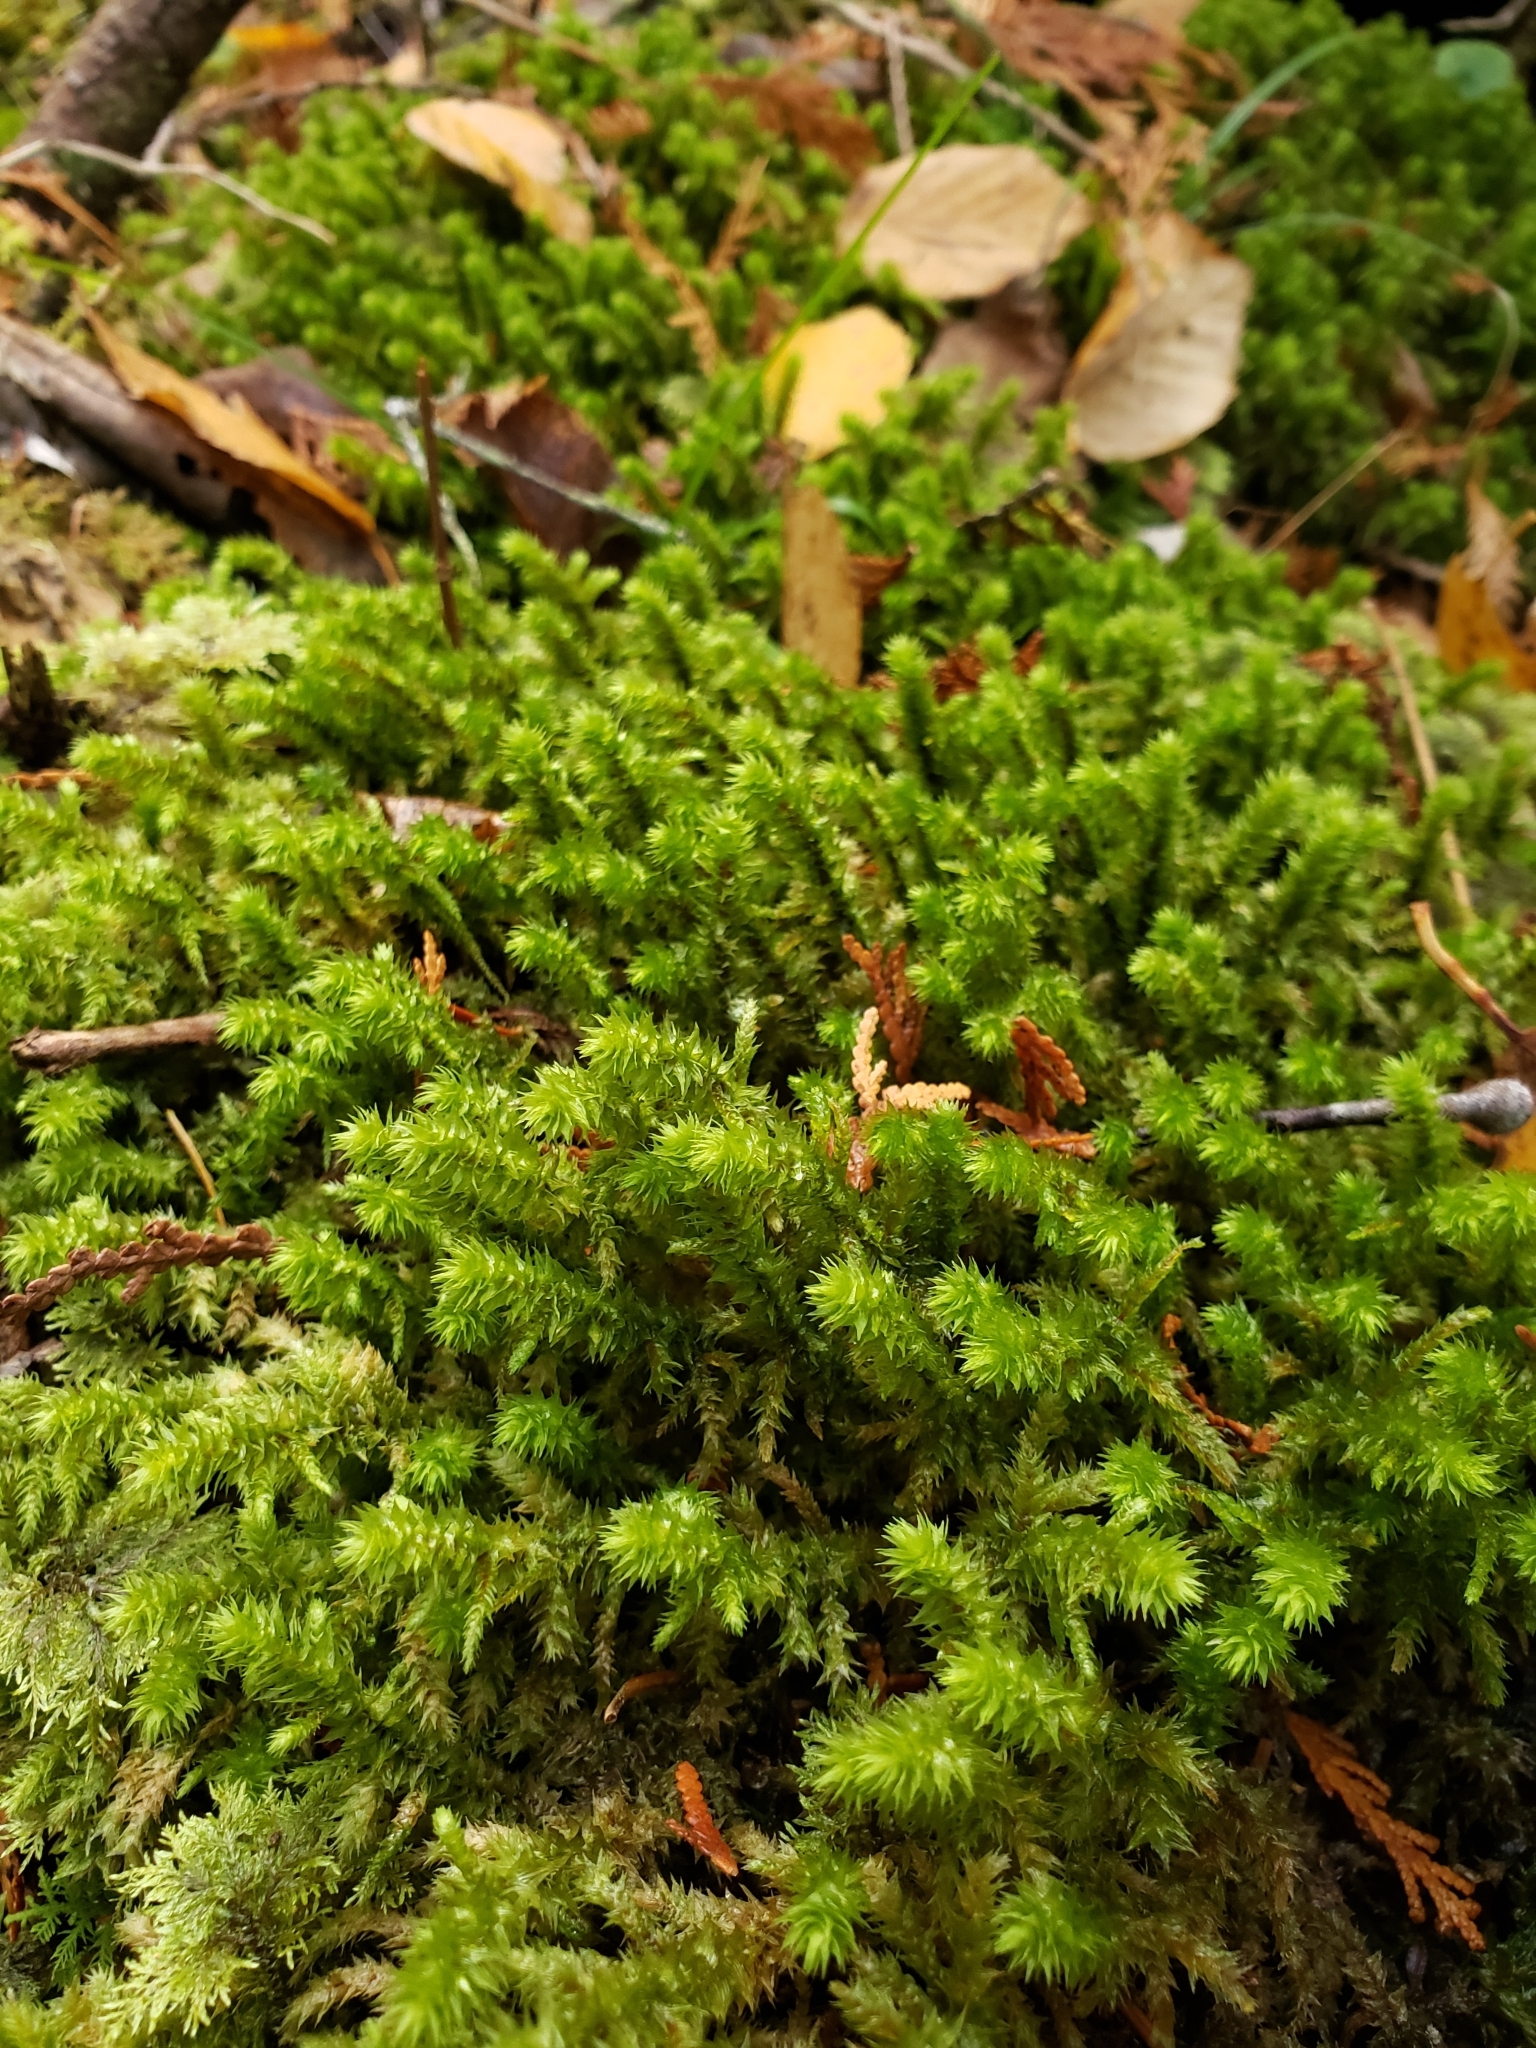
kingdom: Plantae
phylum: Bryophyta
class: Bryopsida
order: Hypnales
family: Hylocomiaceae
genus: Hylocomiadelphus
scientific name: Hylocomiadelphus triquetrus
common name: Rough goose neck moss
